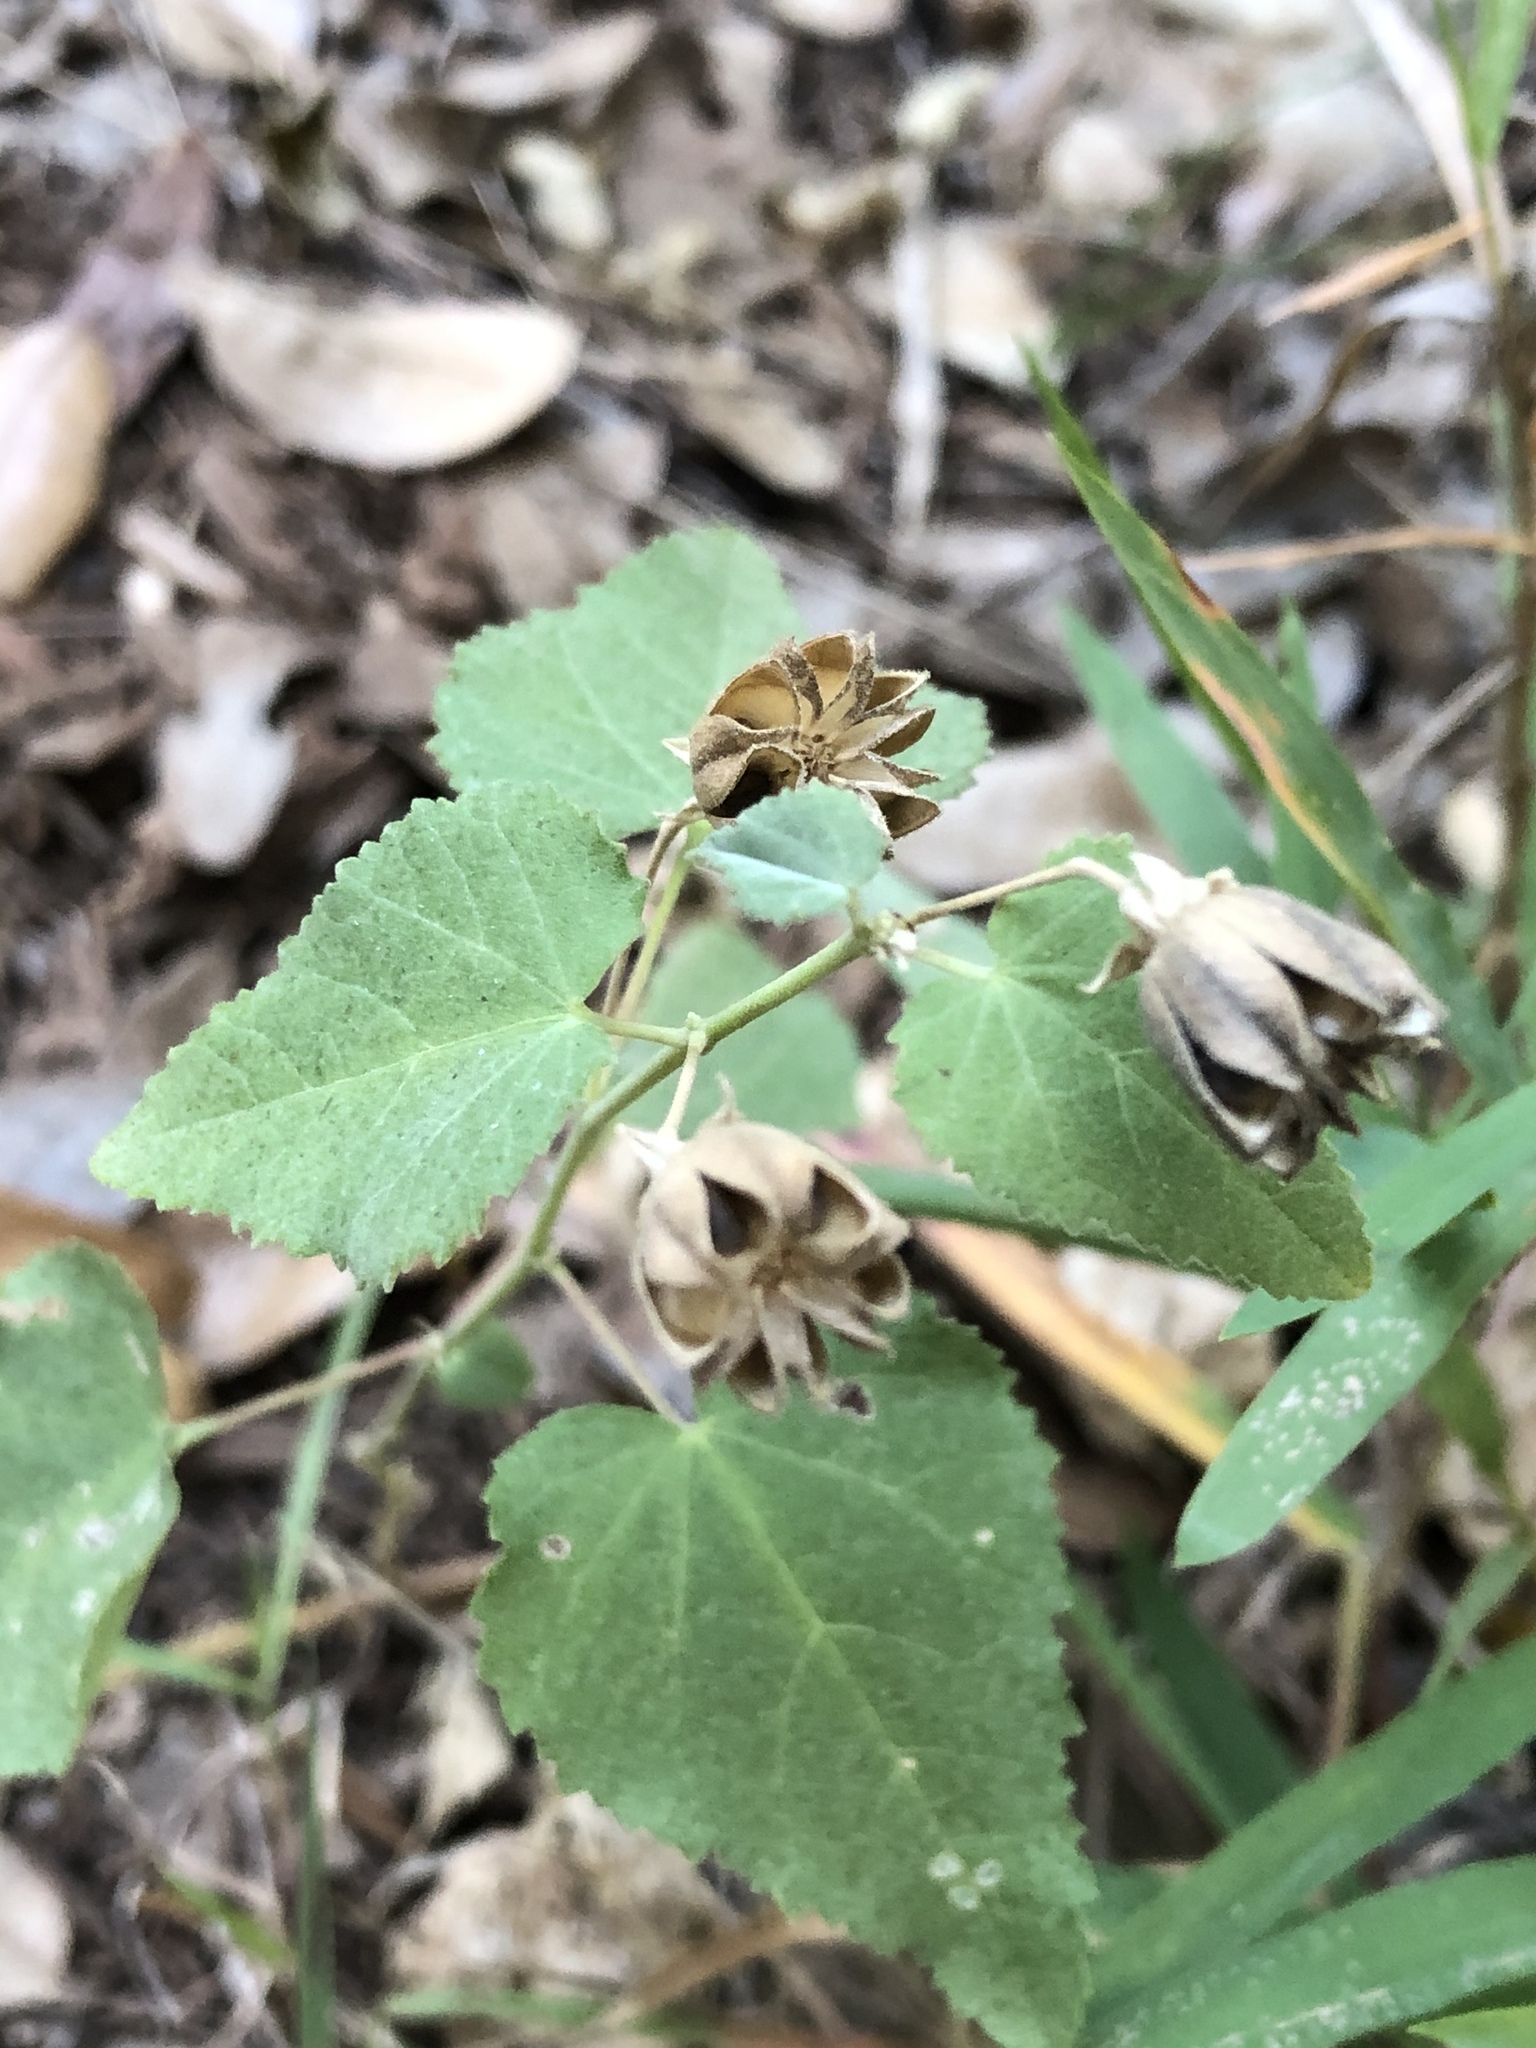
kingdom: Plantae
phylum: Tracheophyta
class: Magnoliopsida
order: Malvales
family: Malvaceae
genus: Abutilon
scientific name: Abutilon fruticosum
